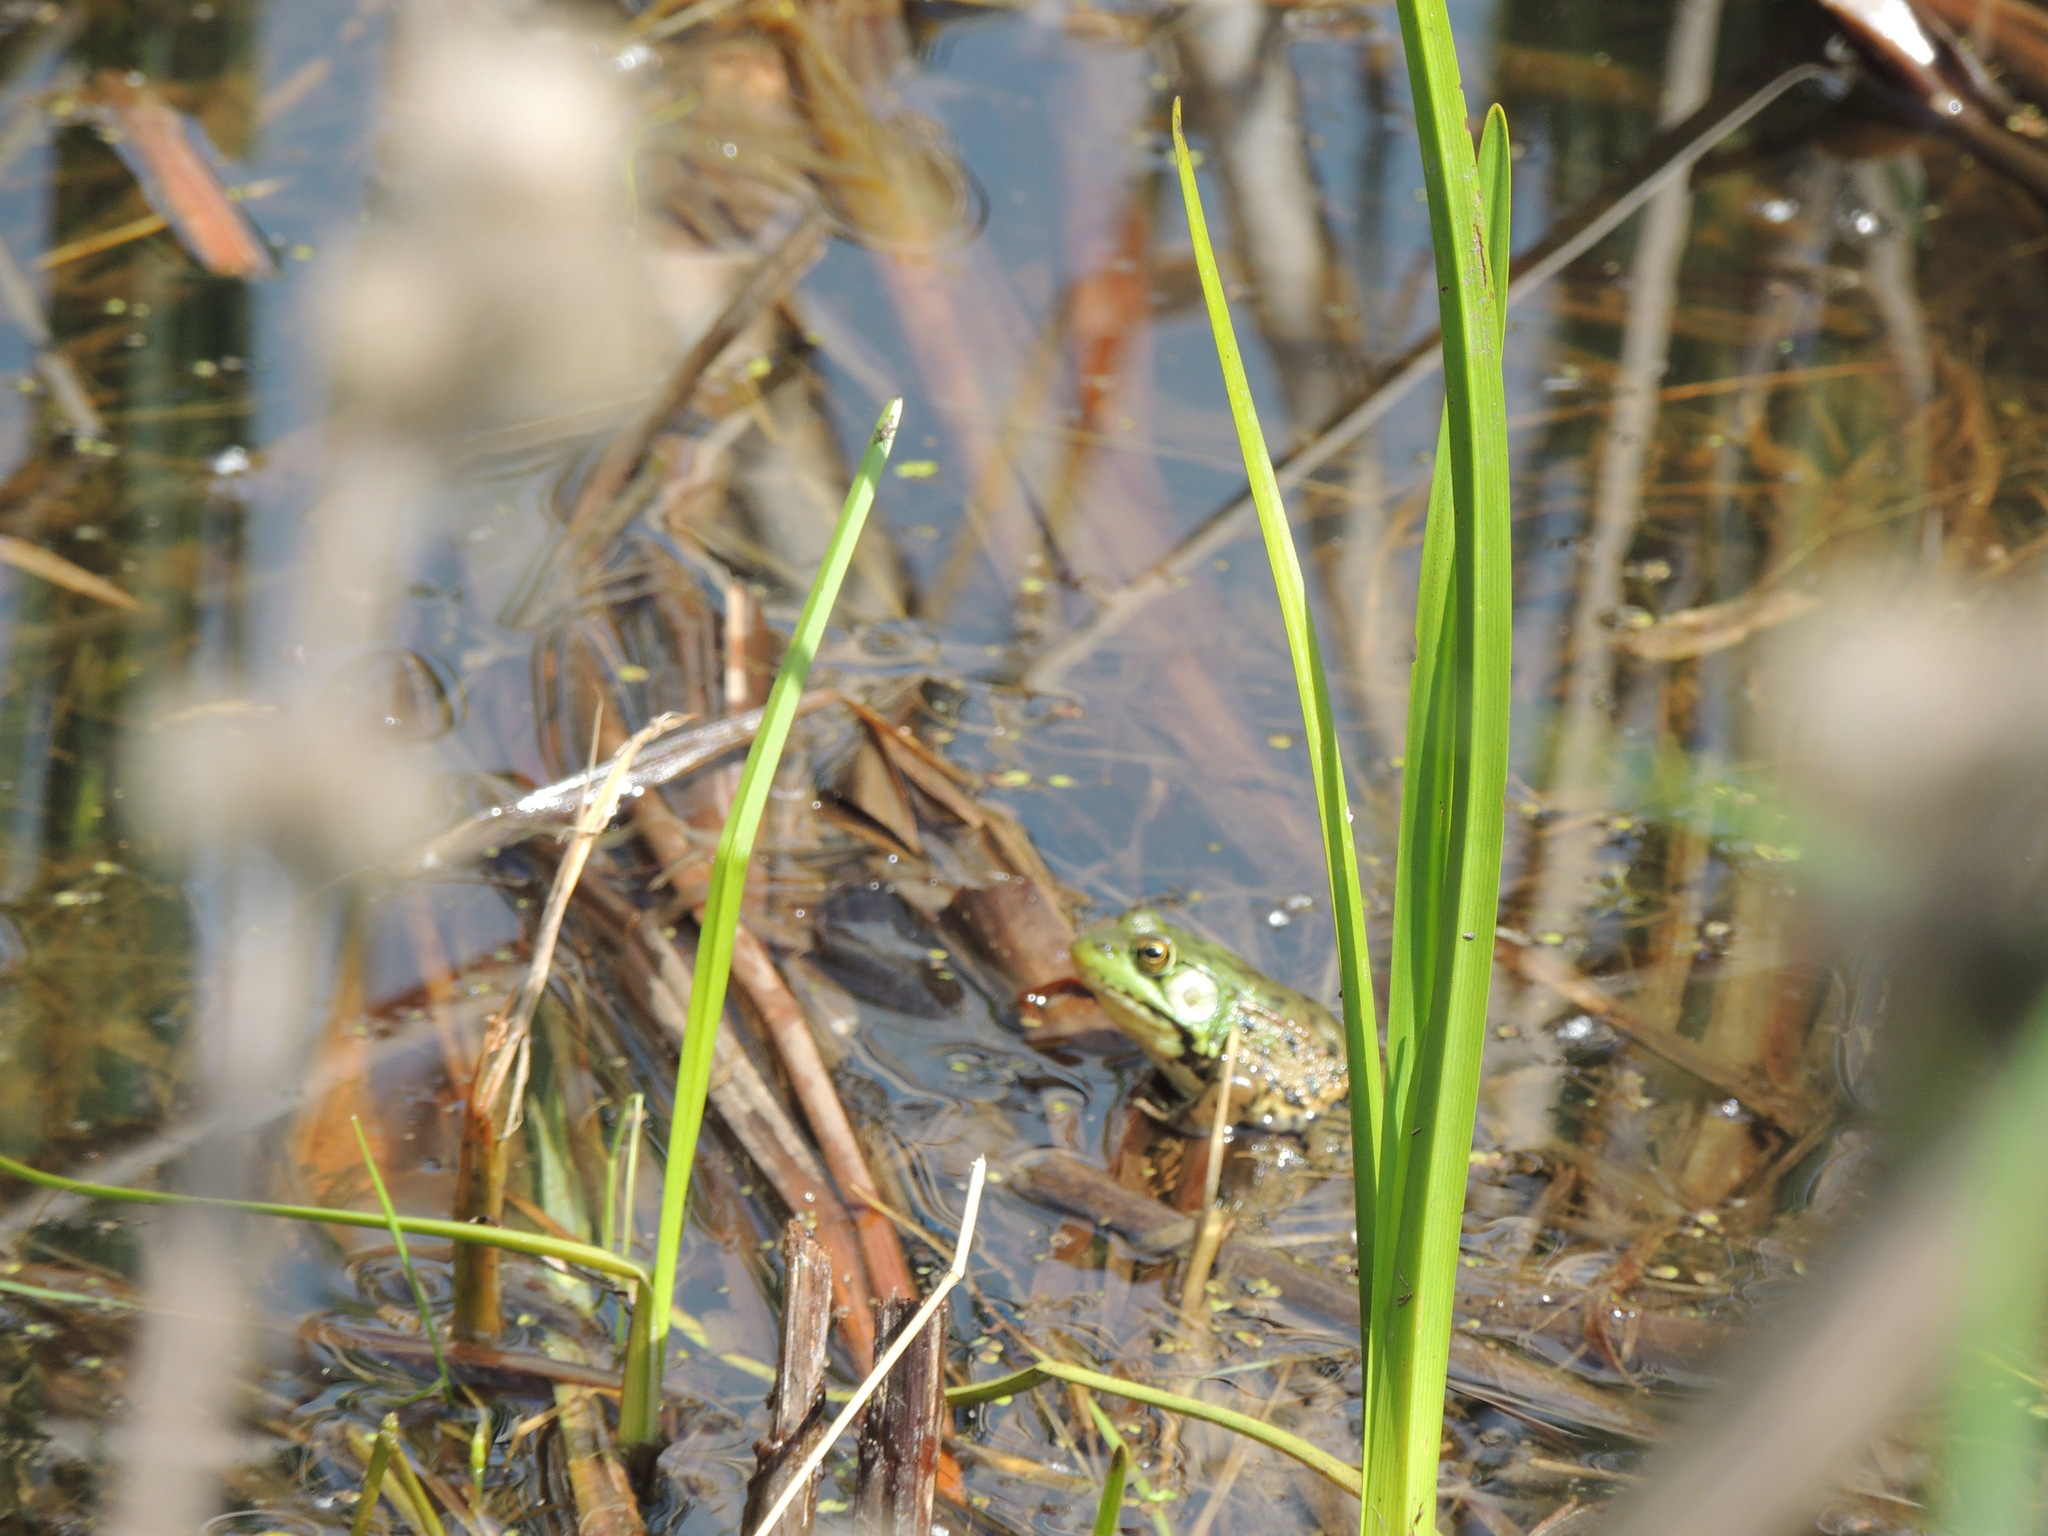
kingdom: Animalia
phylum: Chordata
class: Amphibia
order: Anura
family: Ranidae
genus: Lithobates
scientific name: Lithobates clamitans
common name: Green frog
